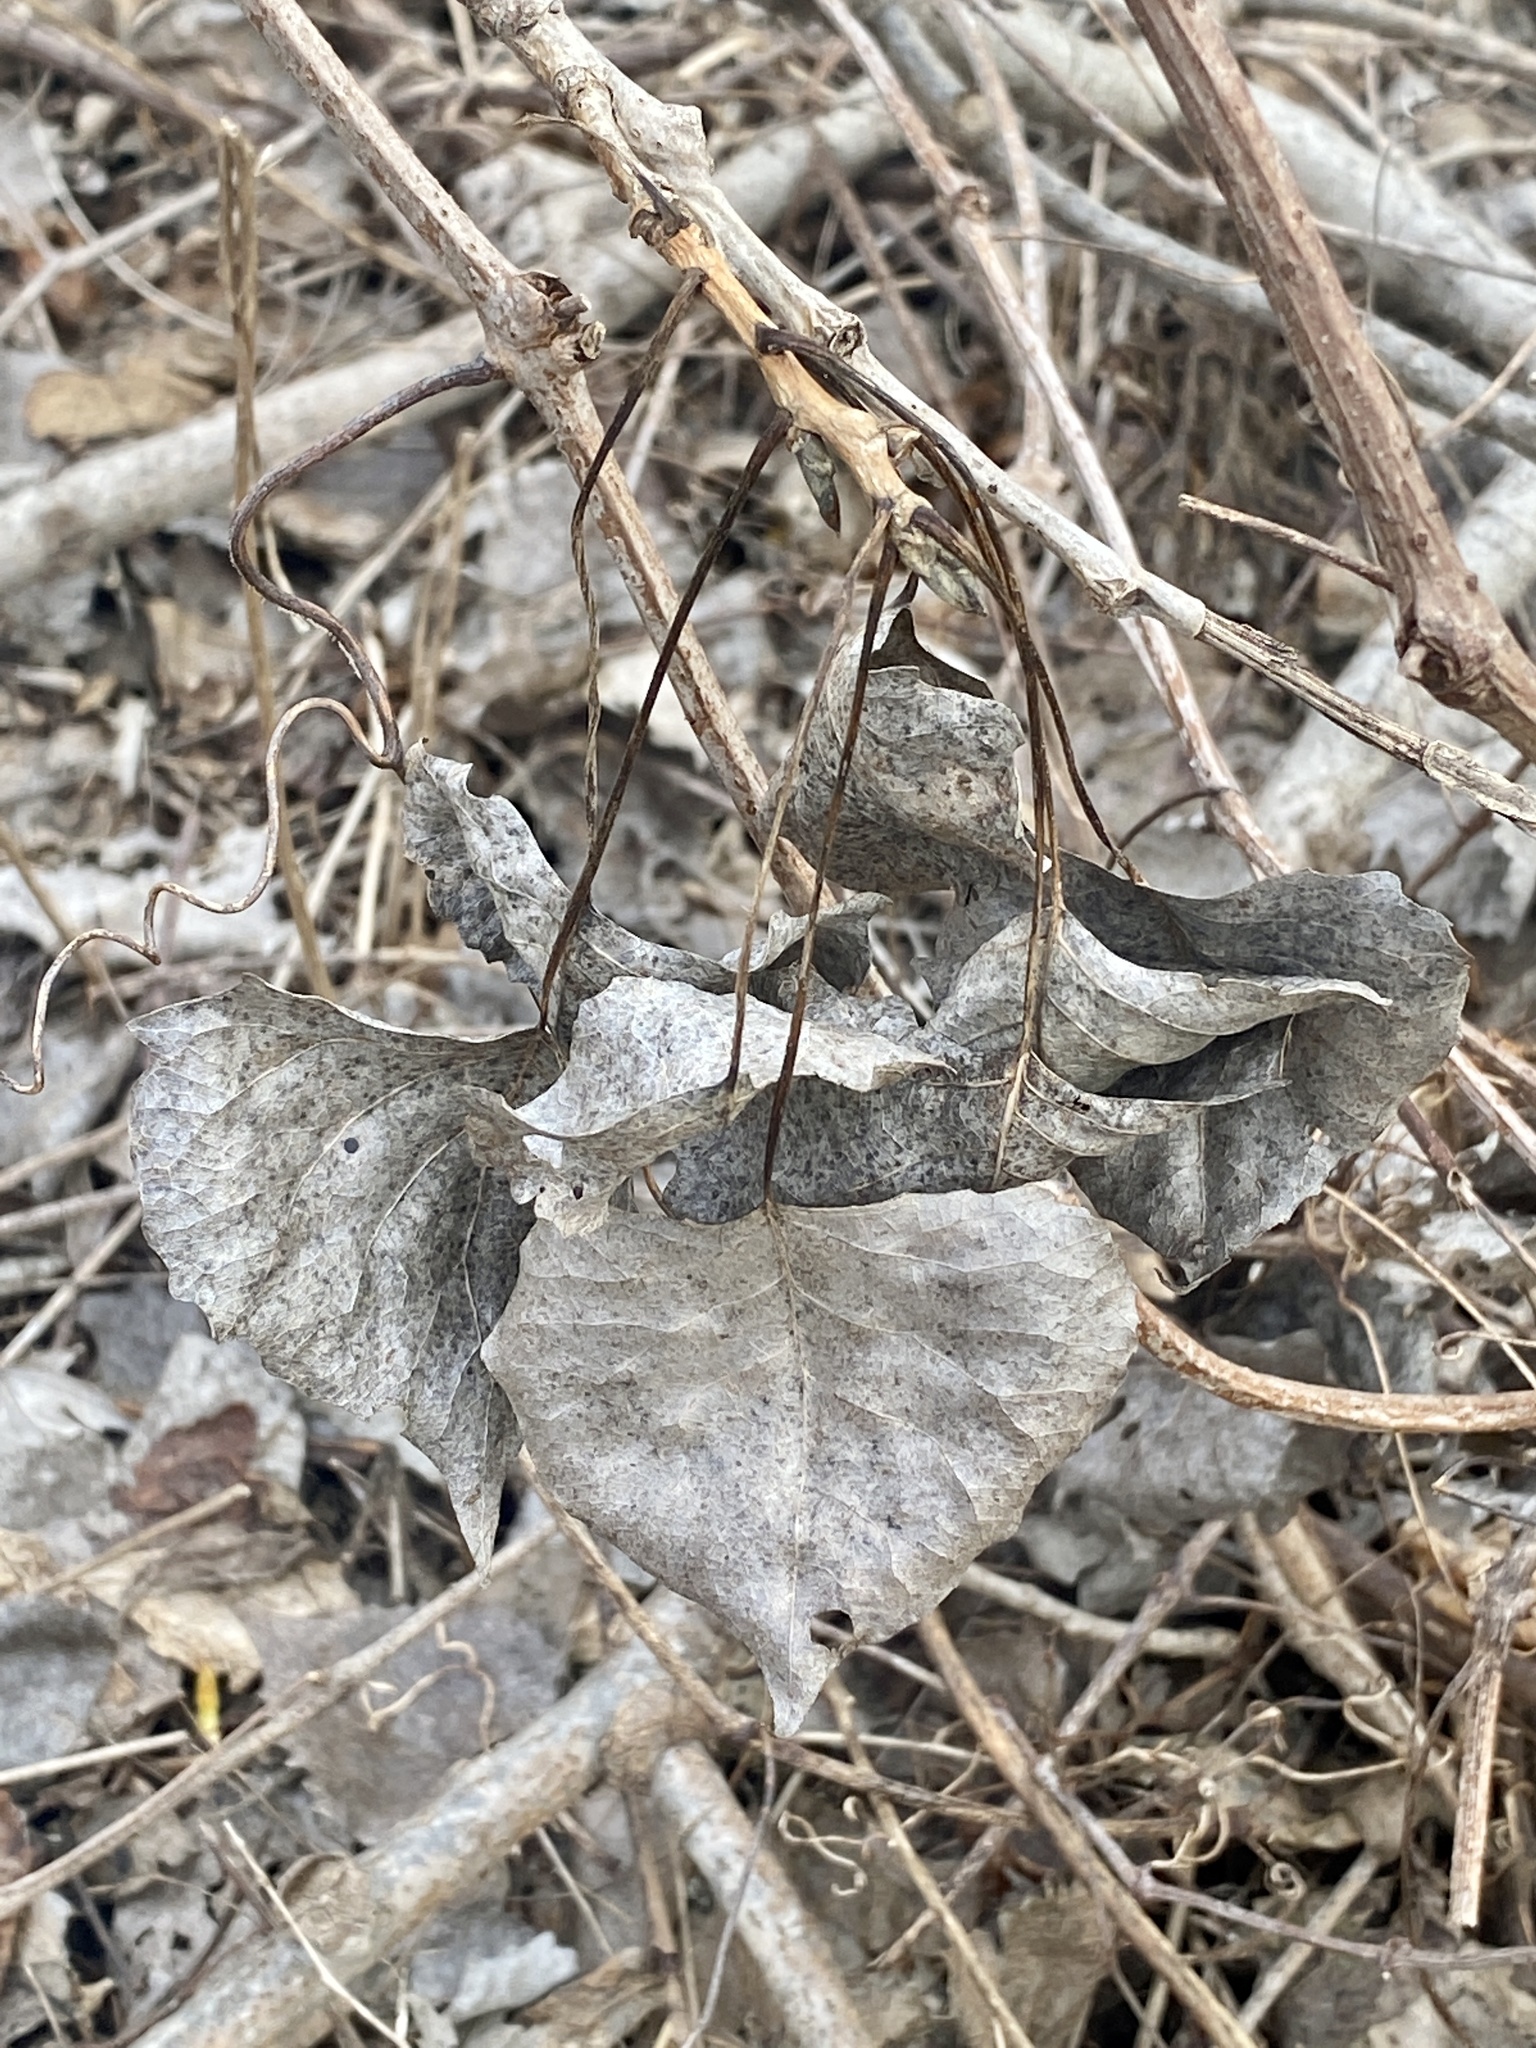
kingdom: Plantae
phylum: Tracheophyta
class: Magnoliopsida
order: Malpighiales
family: Salicaceae
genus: Populus
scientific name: Populus deltoides
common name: Eastern cottonwood
